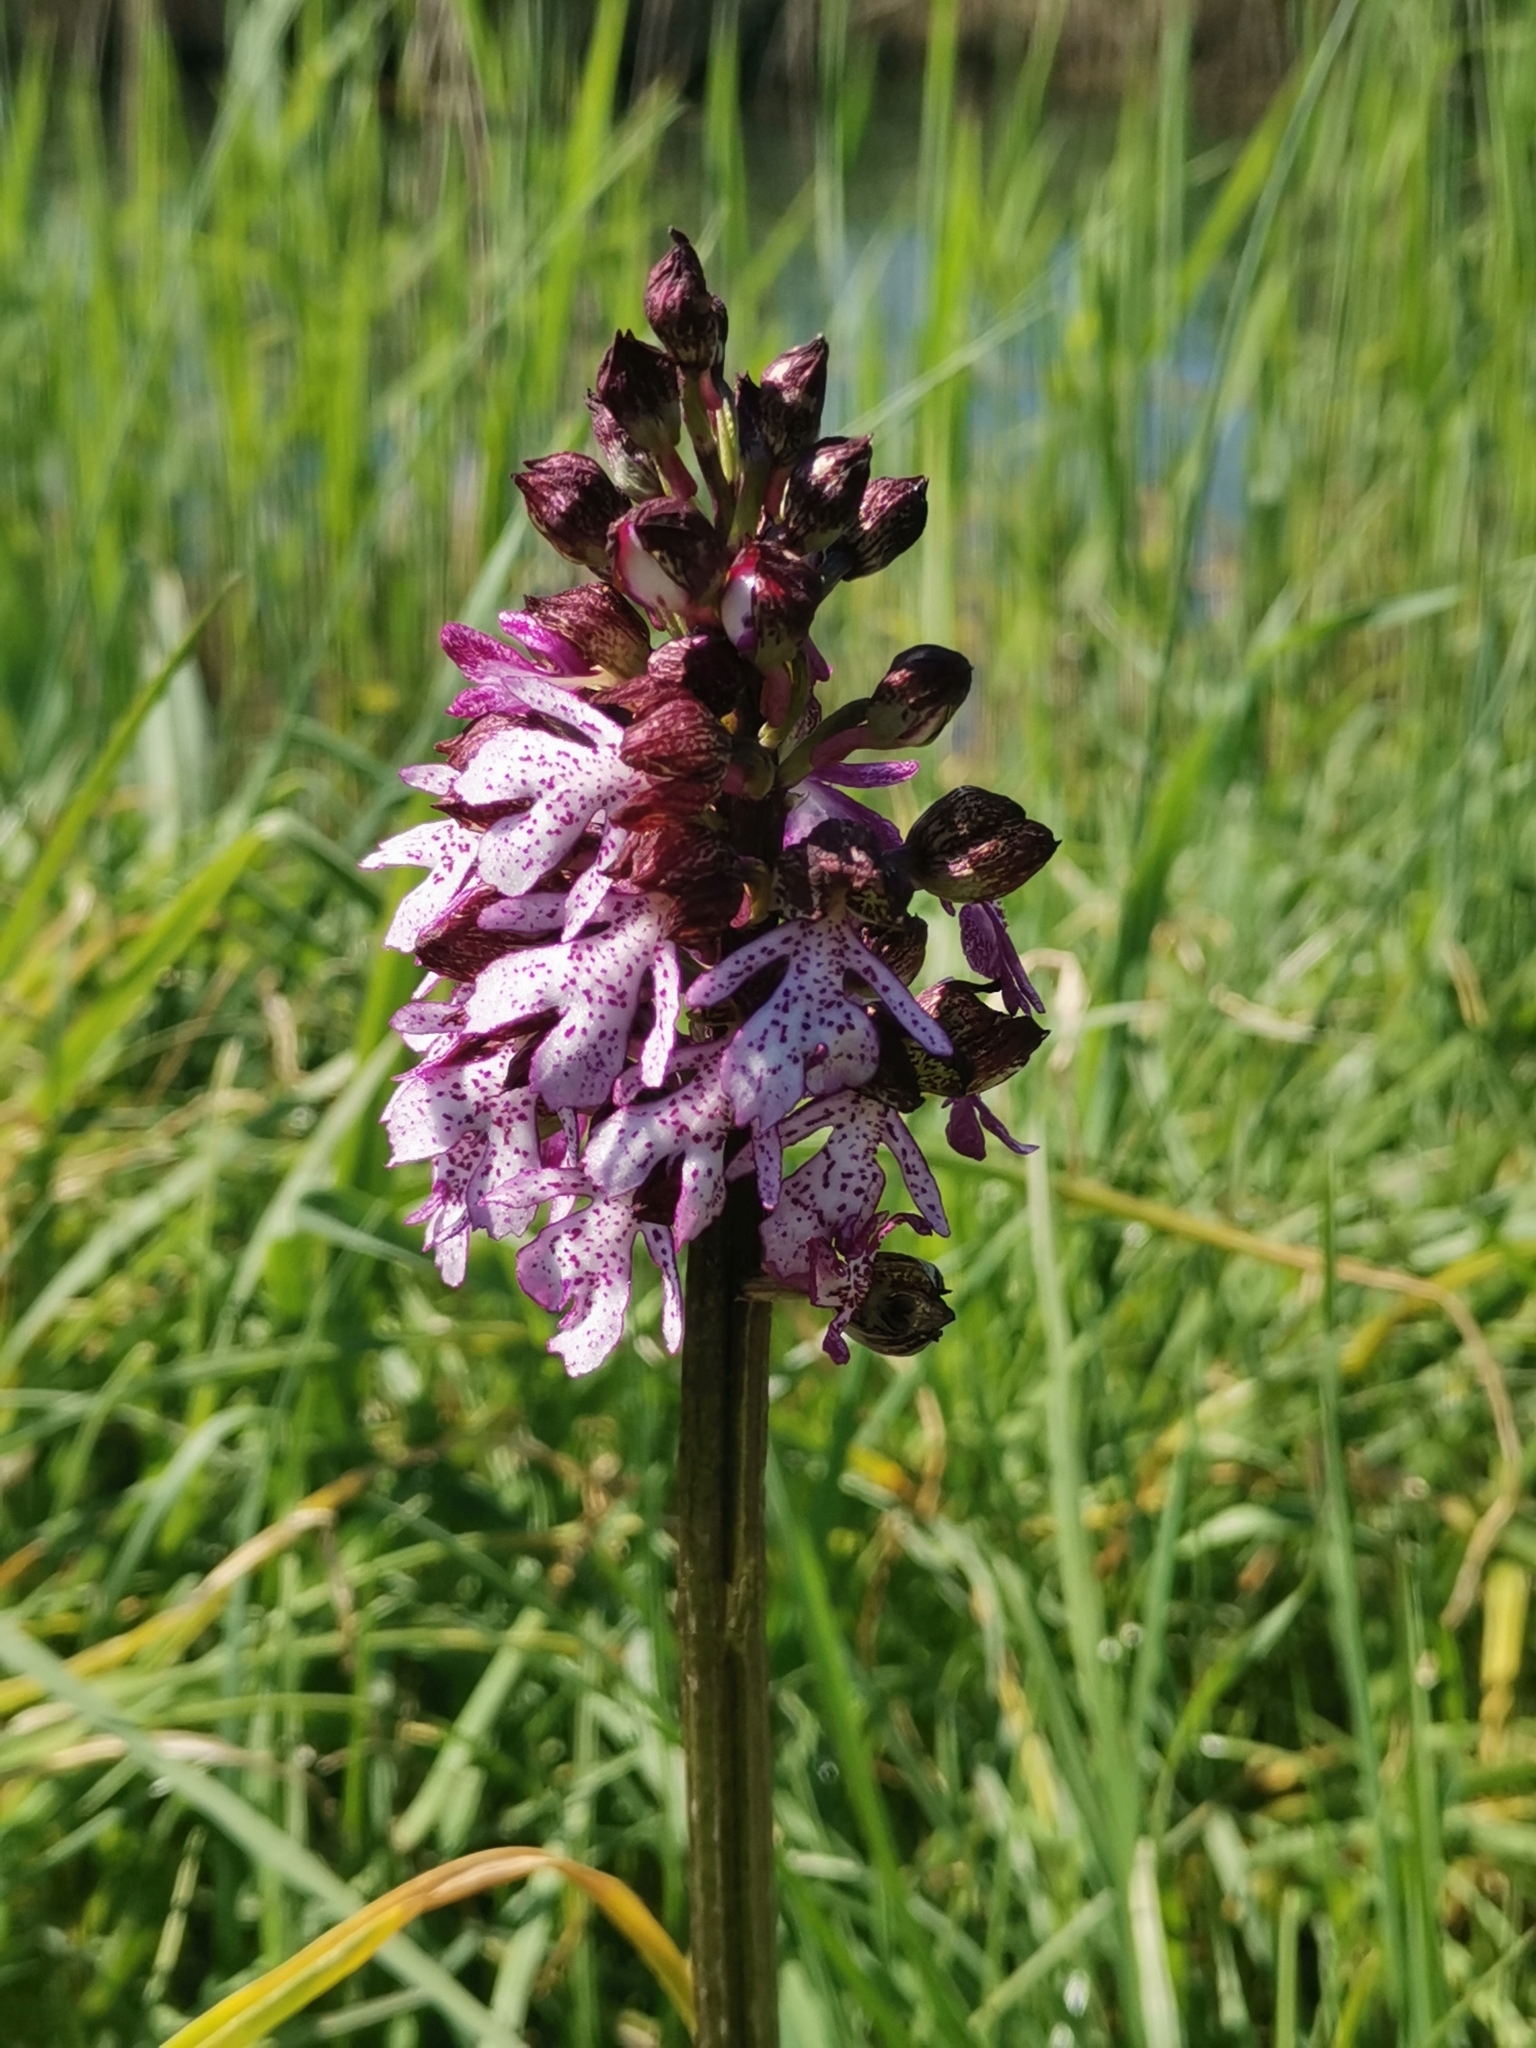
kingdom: Plantae
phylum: Tracheophyta
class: Liliopsida
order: Asparagales
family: Orchidaceae
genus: Orchis
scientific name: Orchis purpurea
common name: Lady orchid
